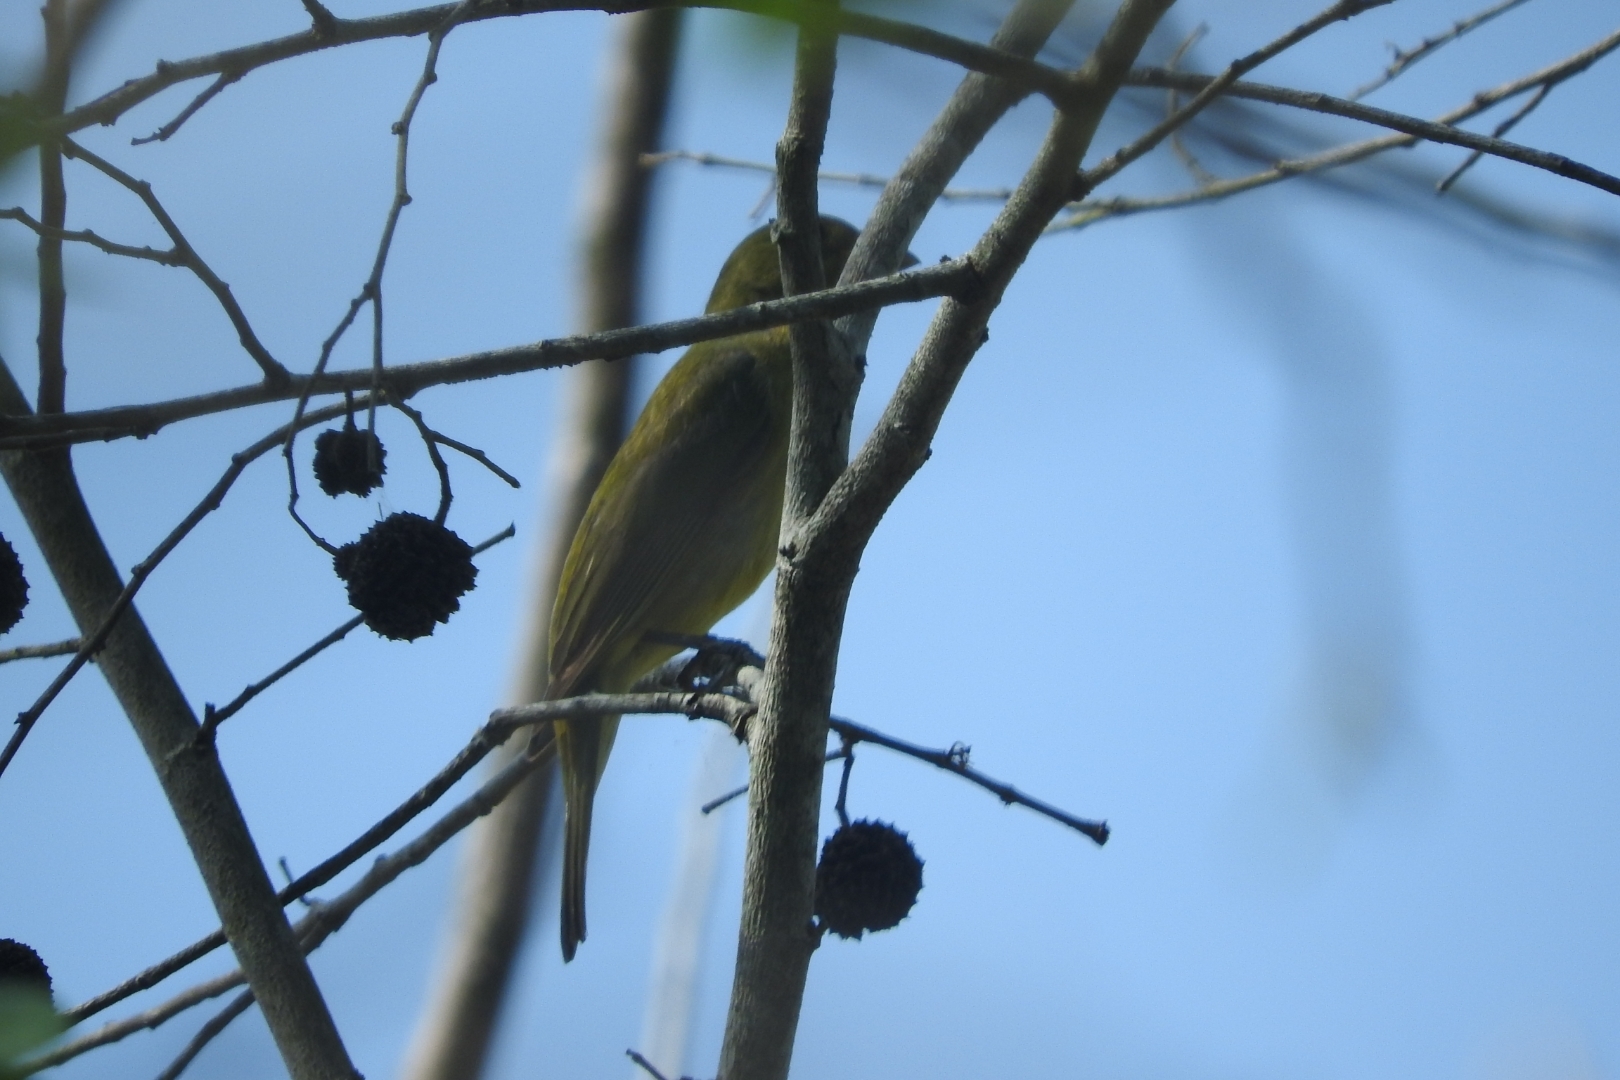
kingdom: Animalia
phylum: Chordata
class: Aves
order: Passeriformes
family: Cardinalidae
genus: Passerina
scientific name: Passerina ciris
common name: Painted bunting
